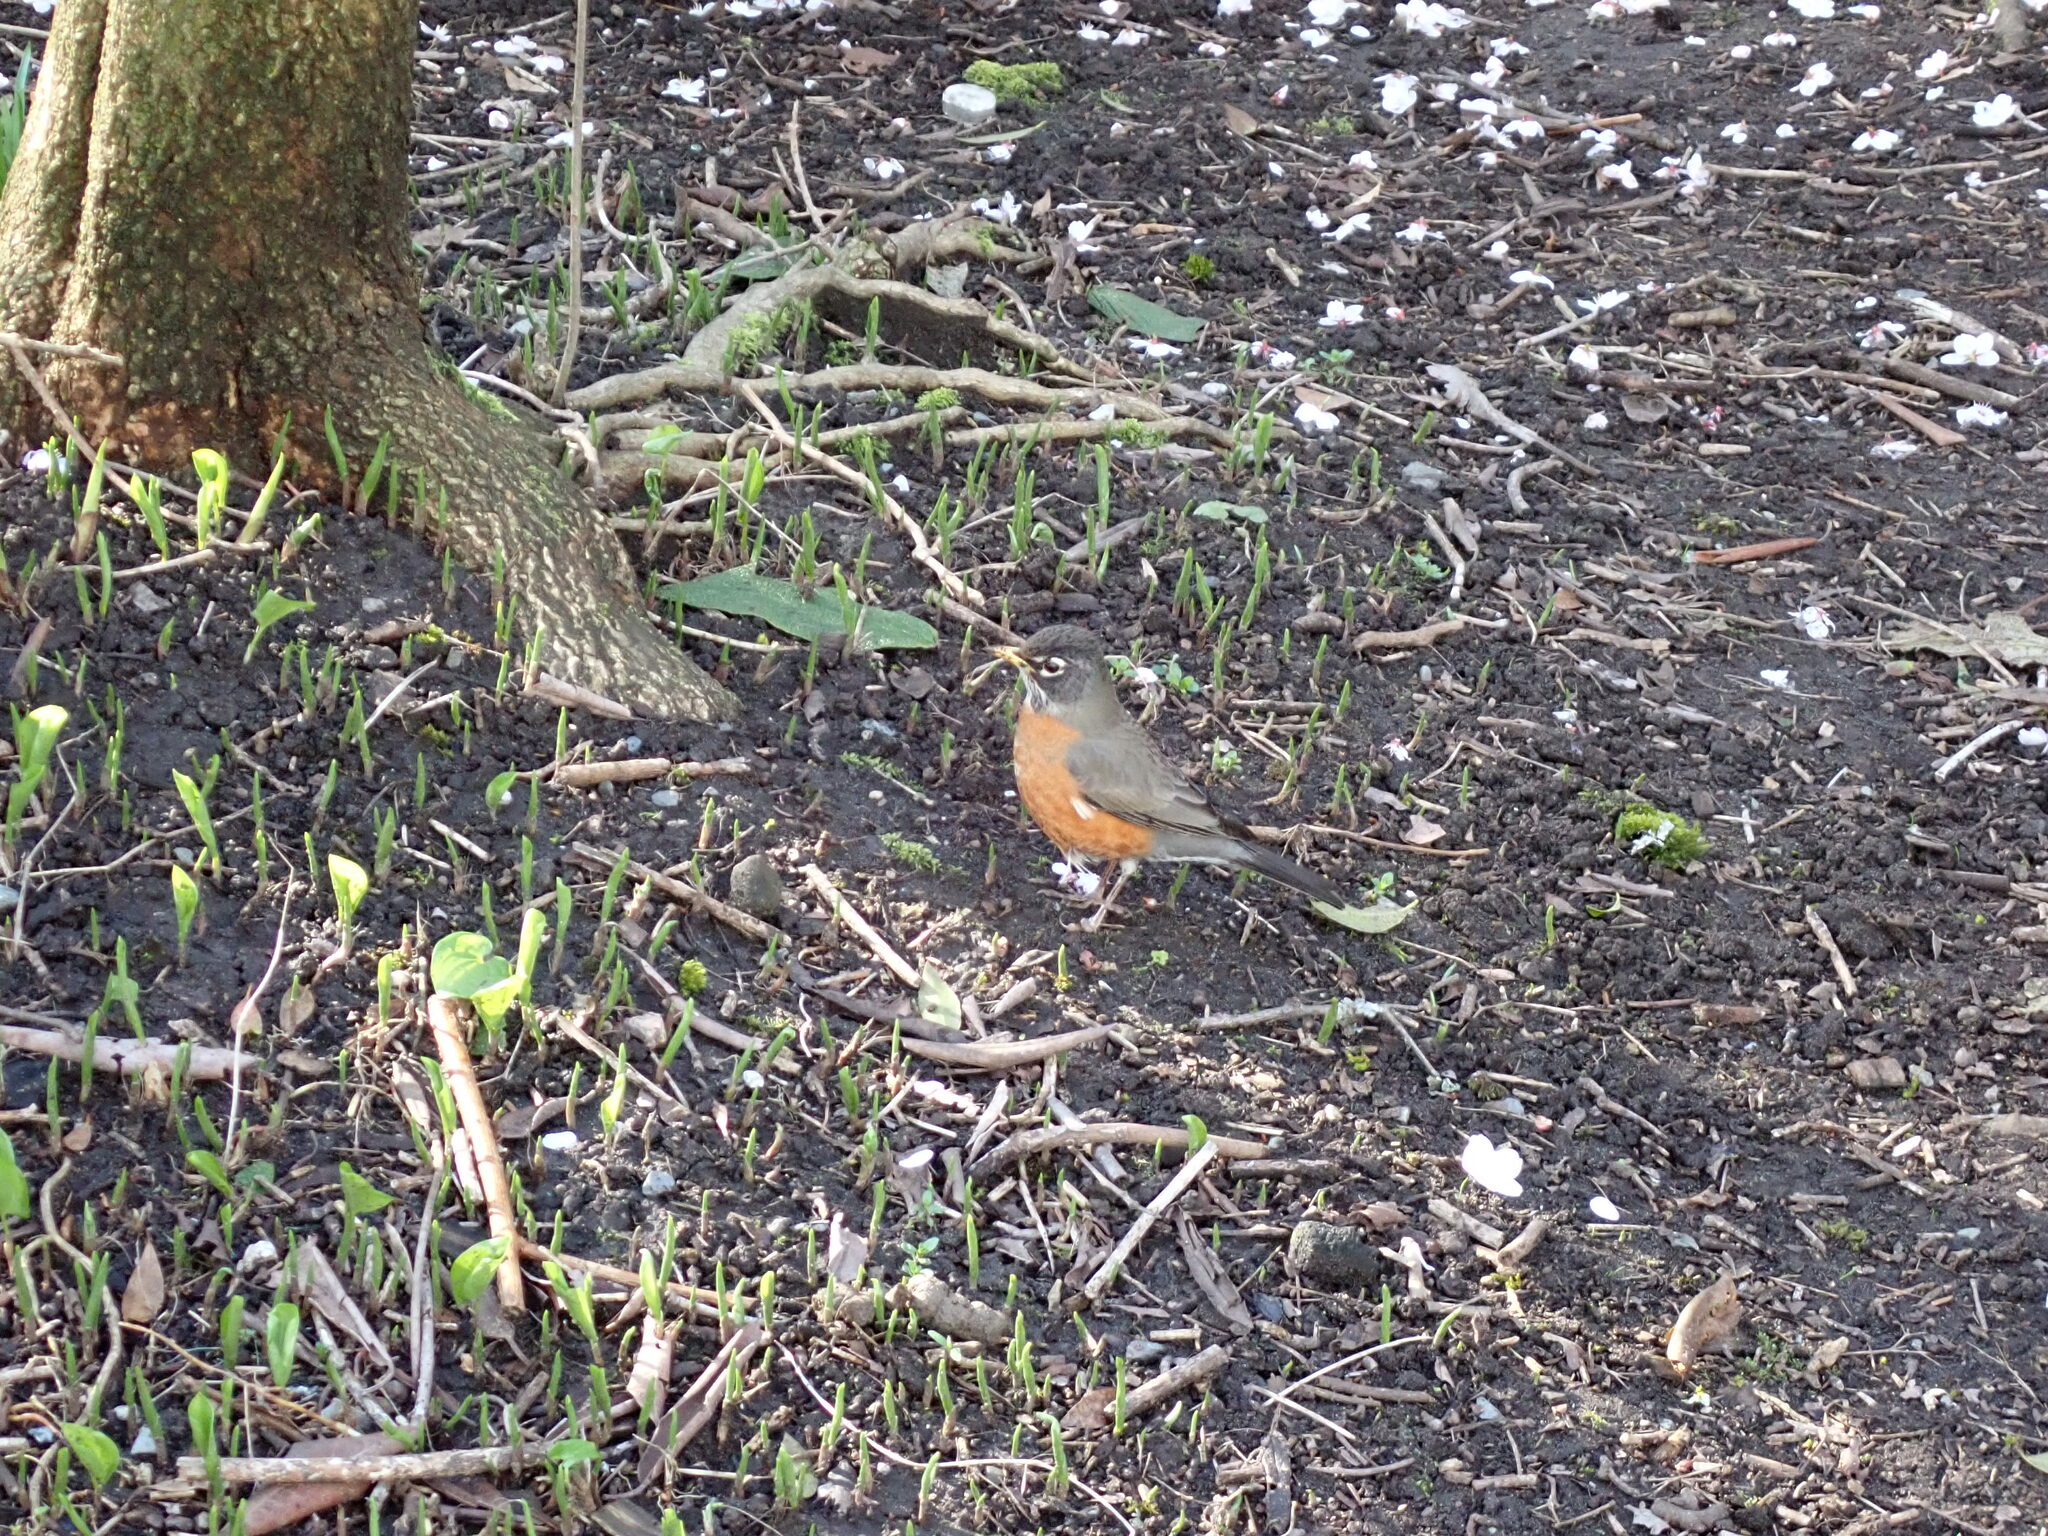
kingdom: Animalia
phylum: Chordata
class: Aves
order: Passeriformes
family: Turdidae
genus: Turdus
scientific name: Turdus migratorius
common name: American robin
